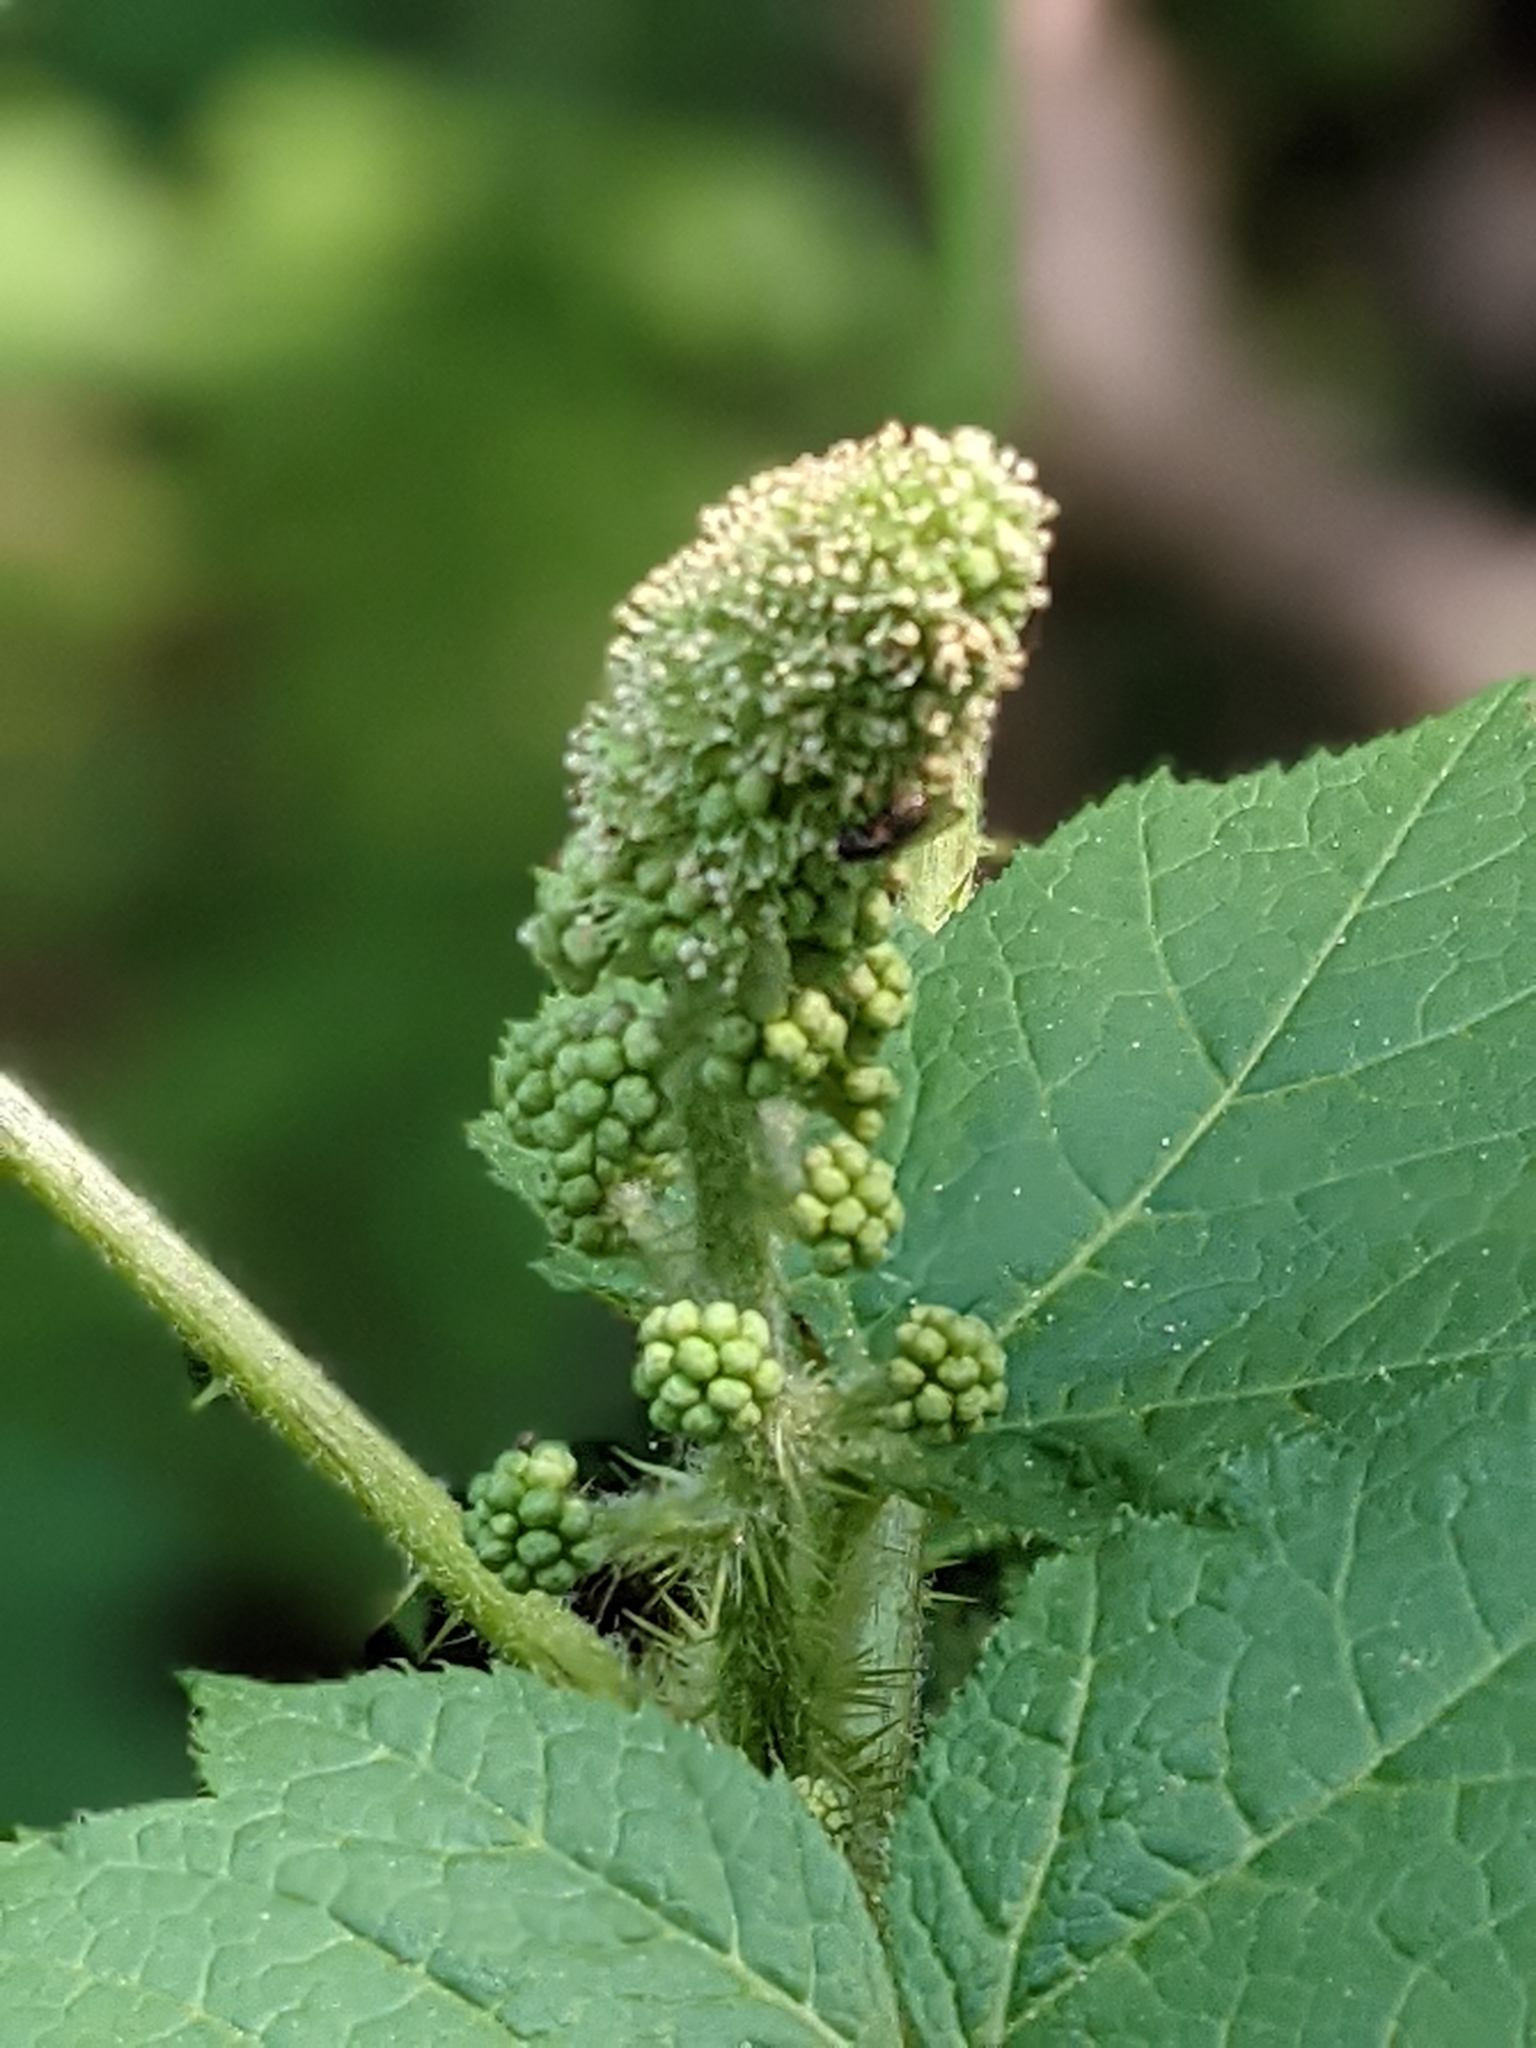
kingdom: Plantae
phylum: Tracheophyta
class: Magnoliopsida
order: Apiales
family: Araliaceae
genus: Oplopanax
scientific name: Oplopanax horridus
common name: Devil's walking-stick
